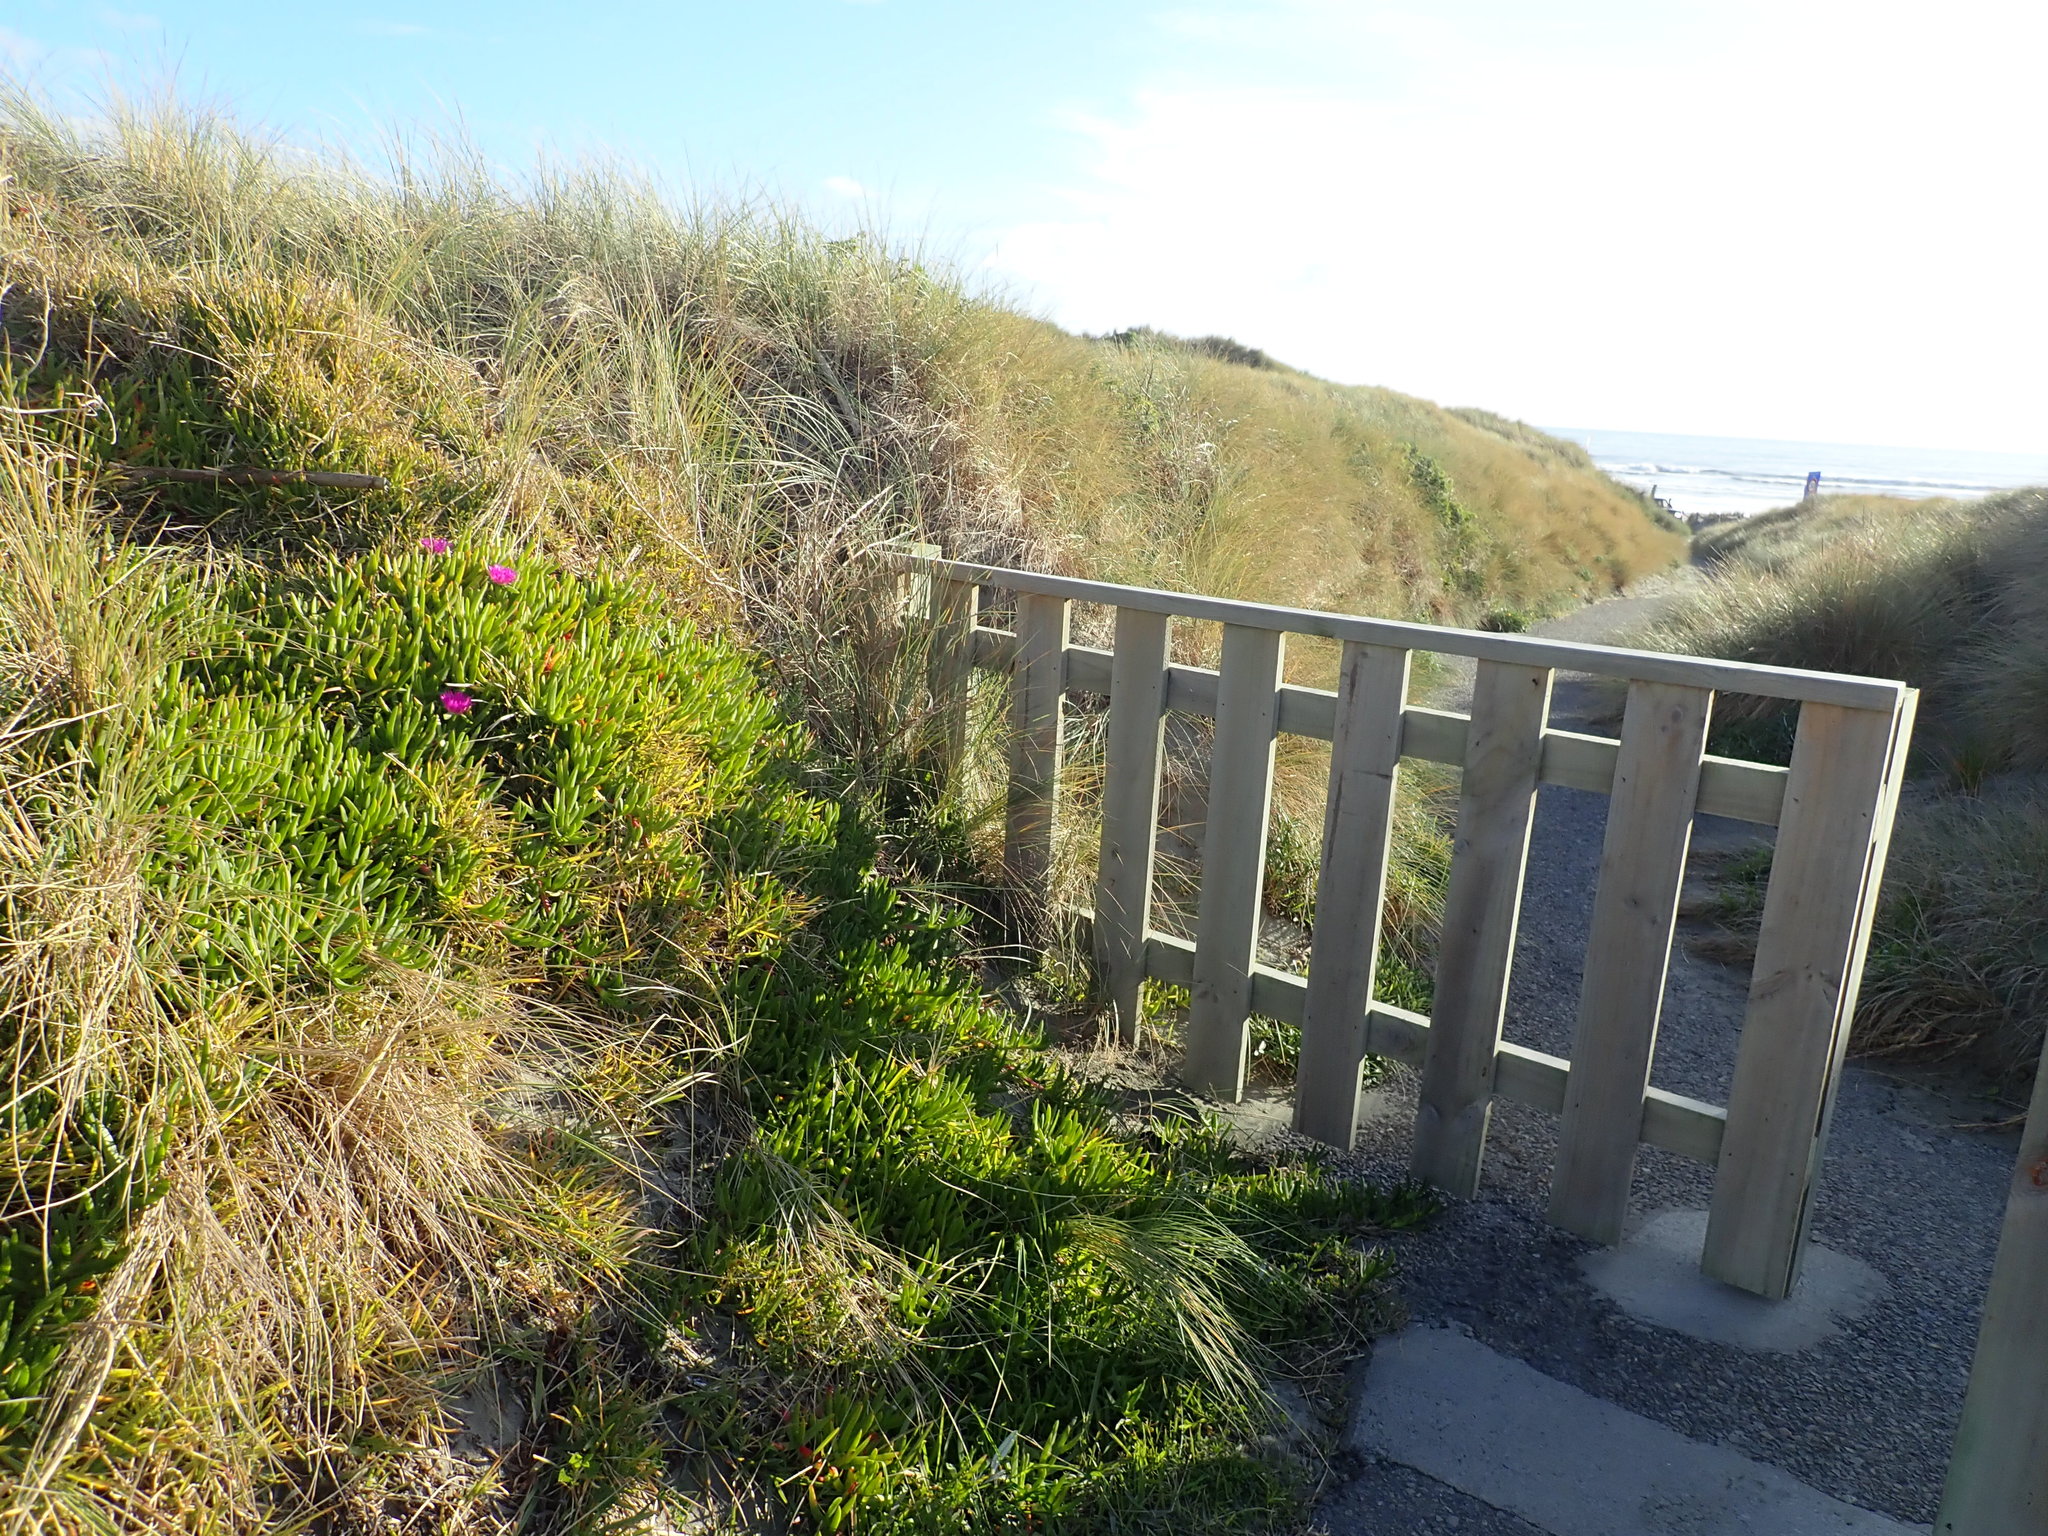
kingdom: Plantae
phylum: Tracheophyta
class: Magnoliopsida
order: Caryophyllales
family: Aizoaceae
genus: Carpobrotus
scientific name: Carpobrotus chilensis
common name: Sea fig
